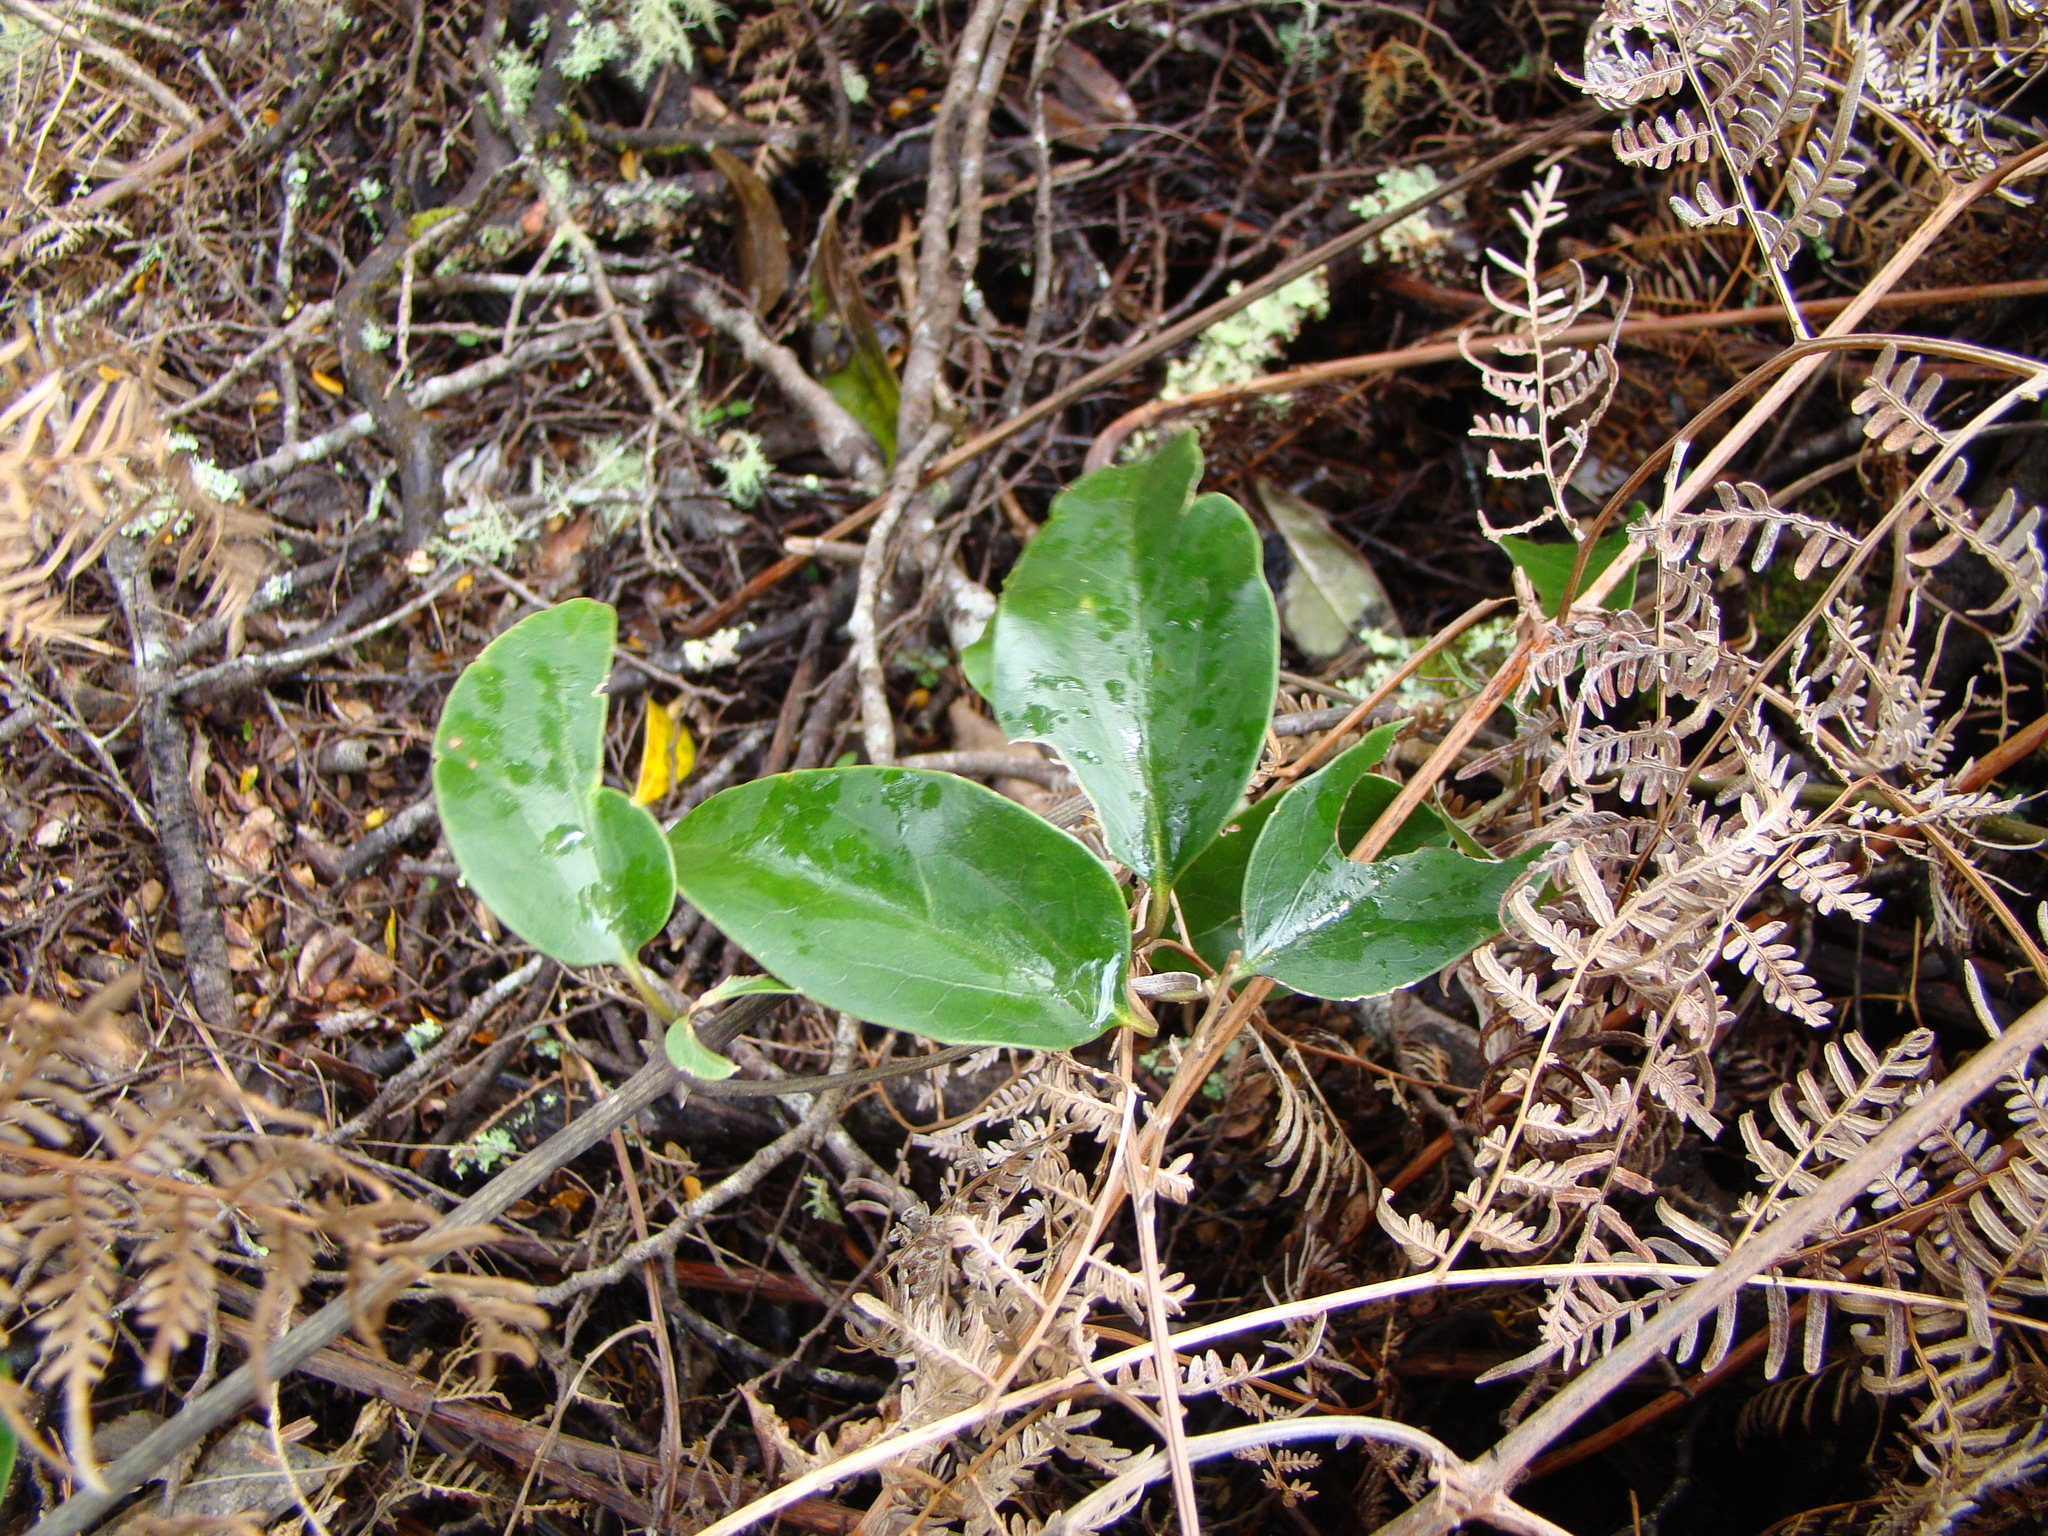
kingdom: Plantae
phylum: Tracheophyta
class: Magnoliopsida
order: Ranunculales
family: Ranunculaceae
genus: Clematis
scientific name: Clematis paniculata
